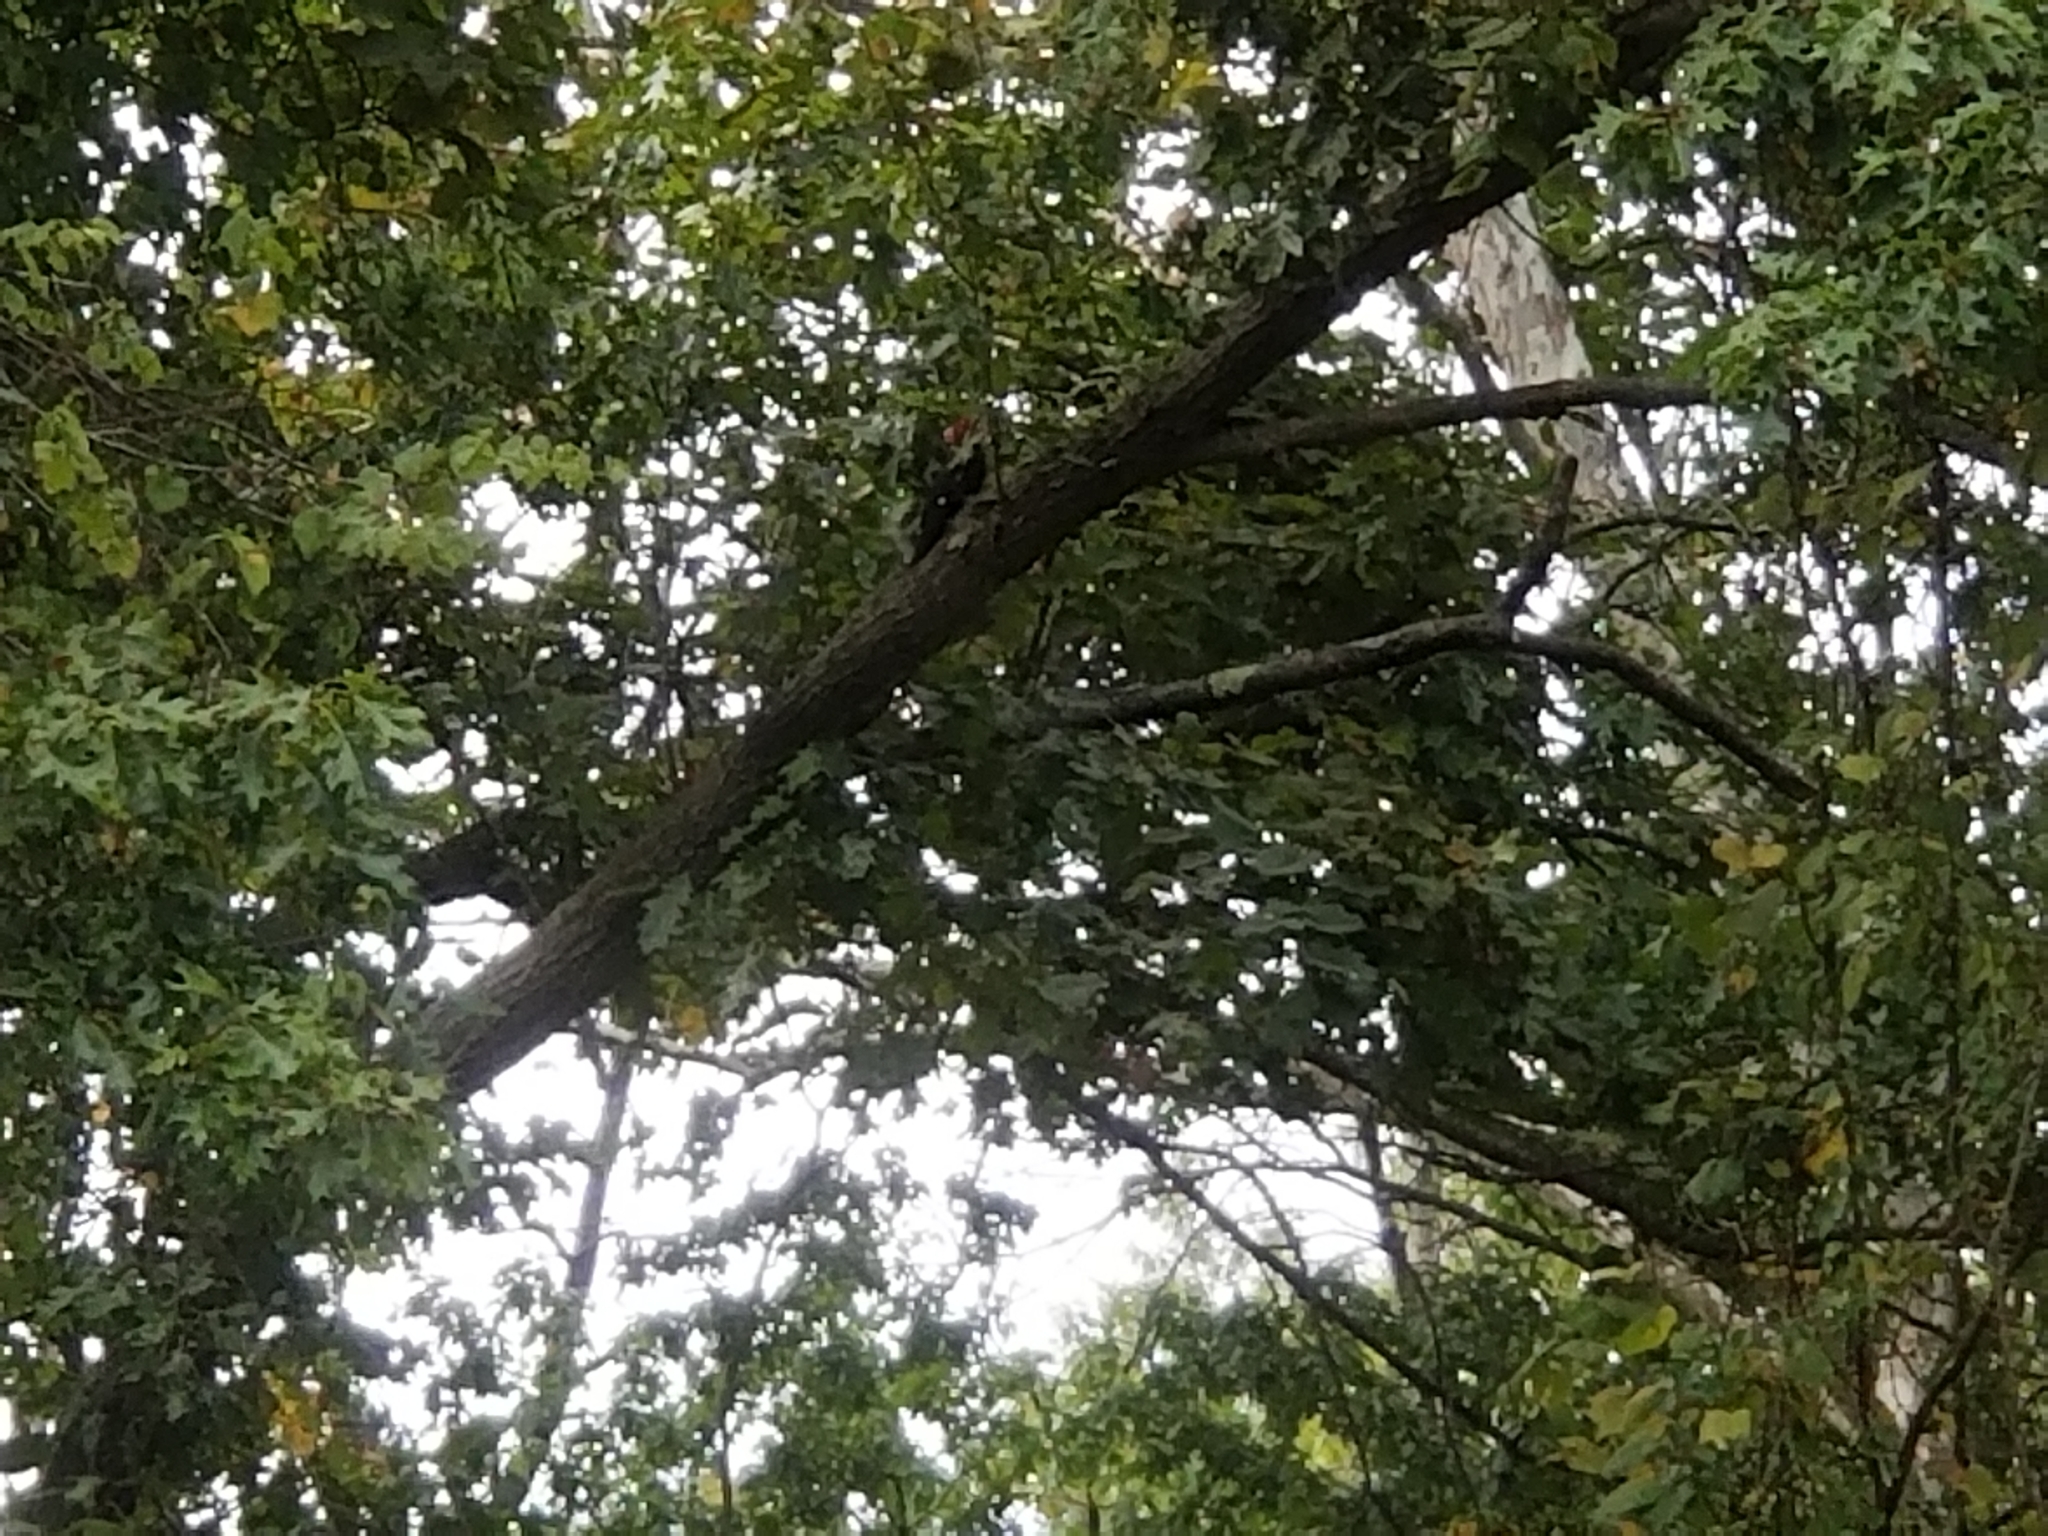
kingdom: Animalia
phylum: Chordata
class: Aves
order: Piciformes
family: Picidae
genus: Dryocopus
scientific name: Dryocopus pileatus
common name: Pileated woodpecker
